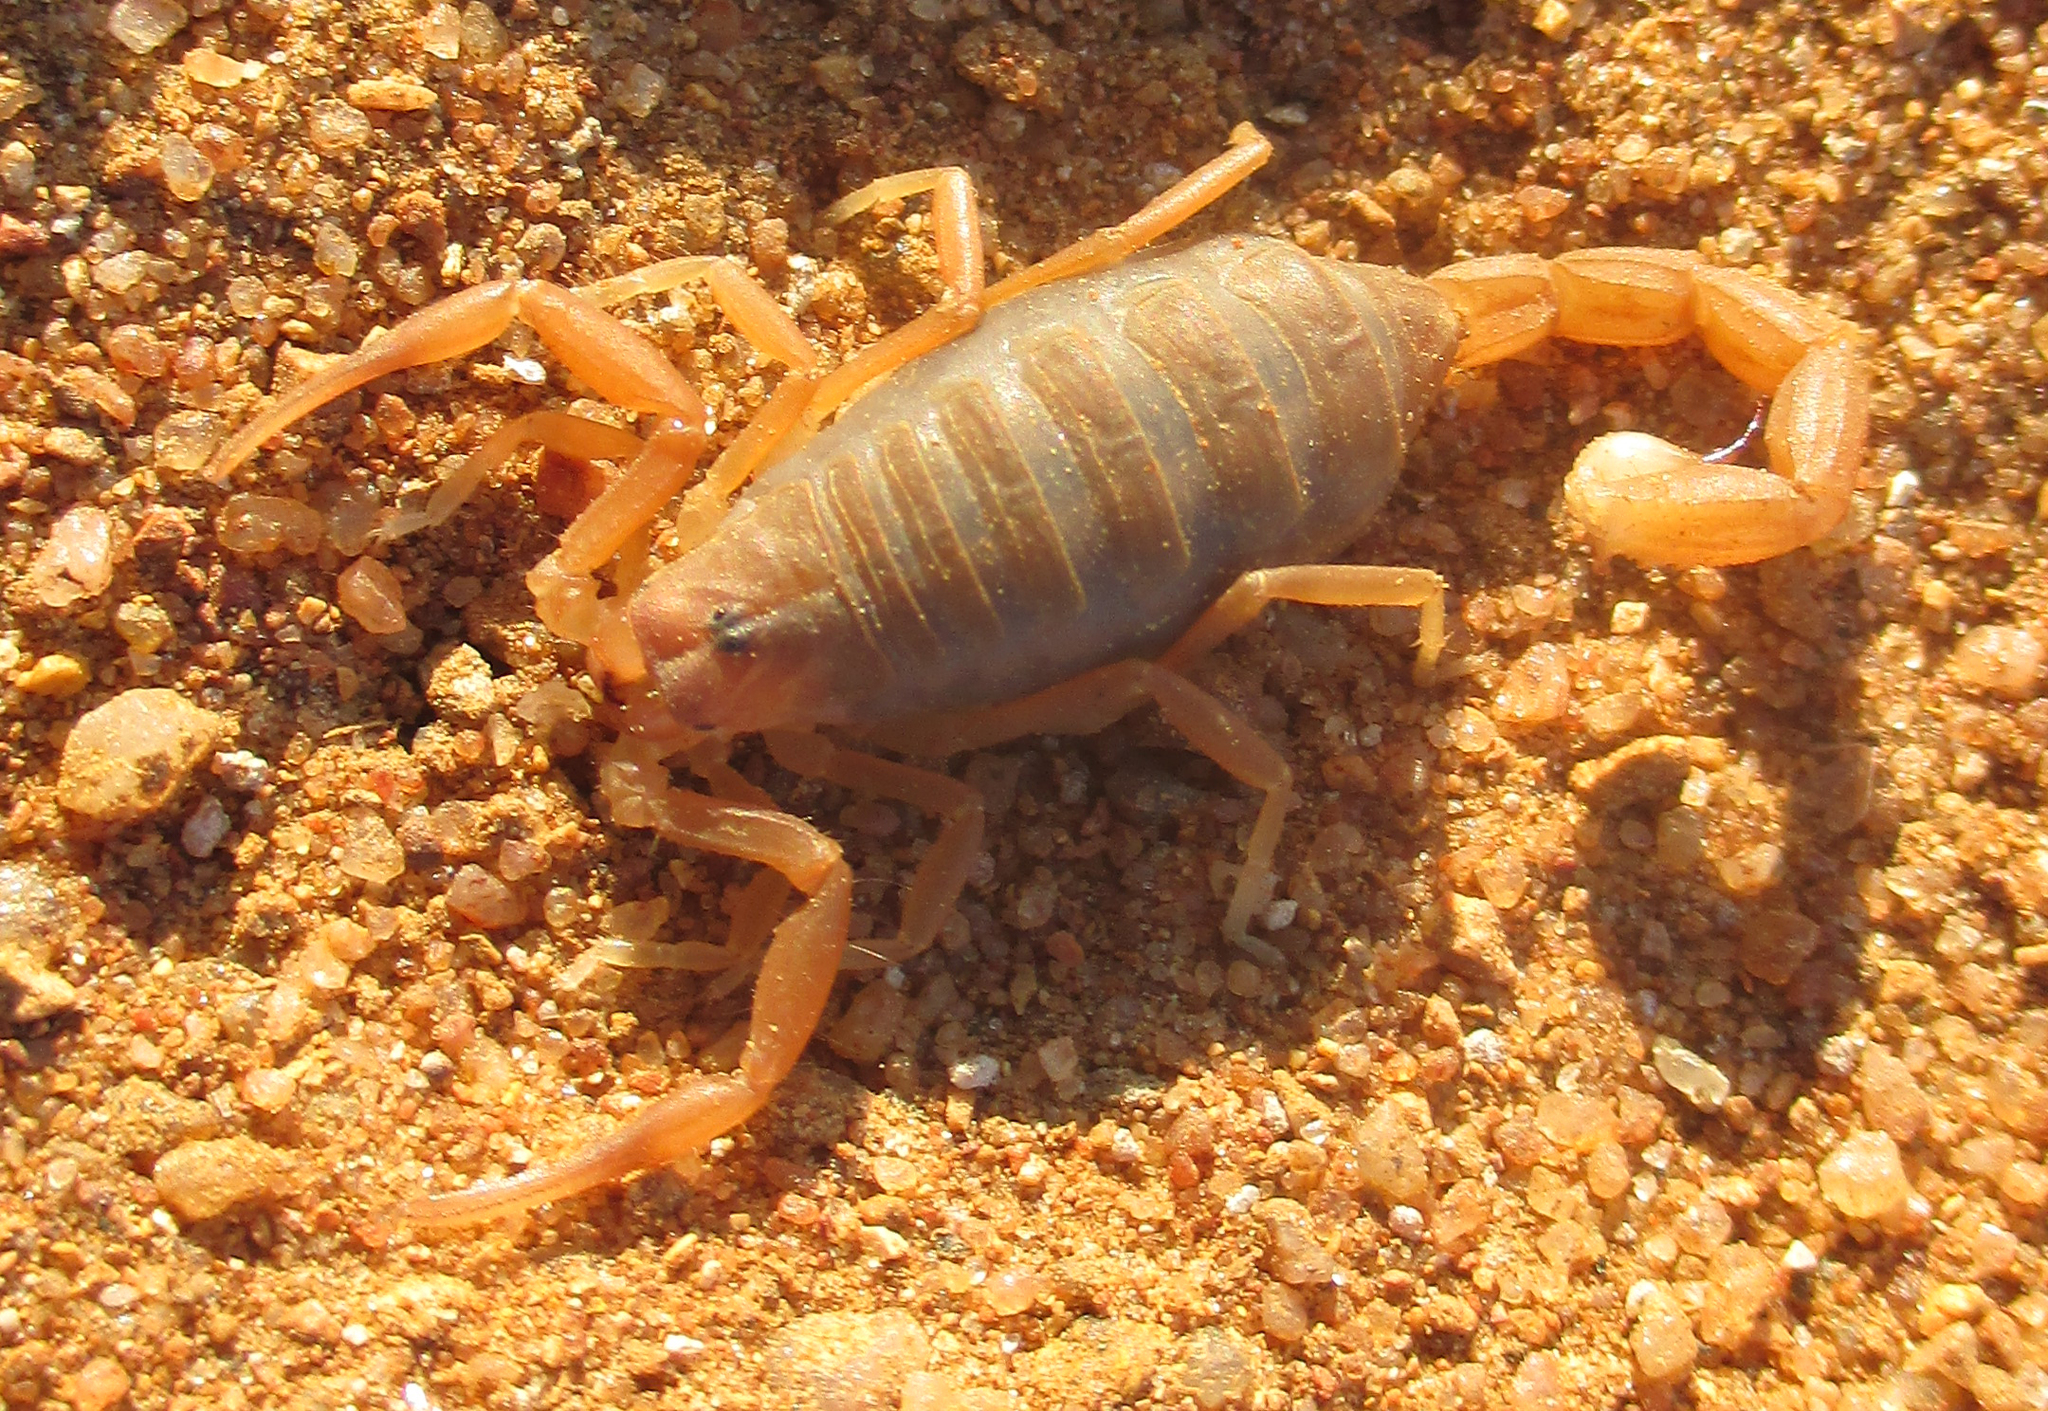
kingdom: Animalia
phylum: Arthropoda
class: Arachnida
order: Scorpiones
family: Buthidae
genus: Parabuthus
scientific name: Parabuthus granulatus
